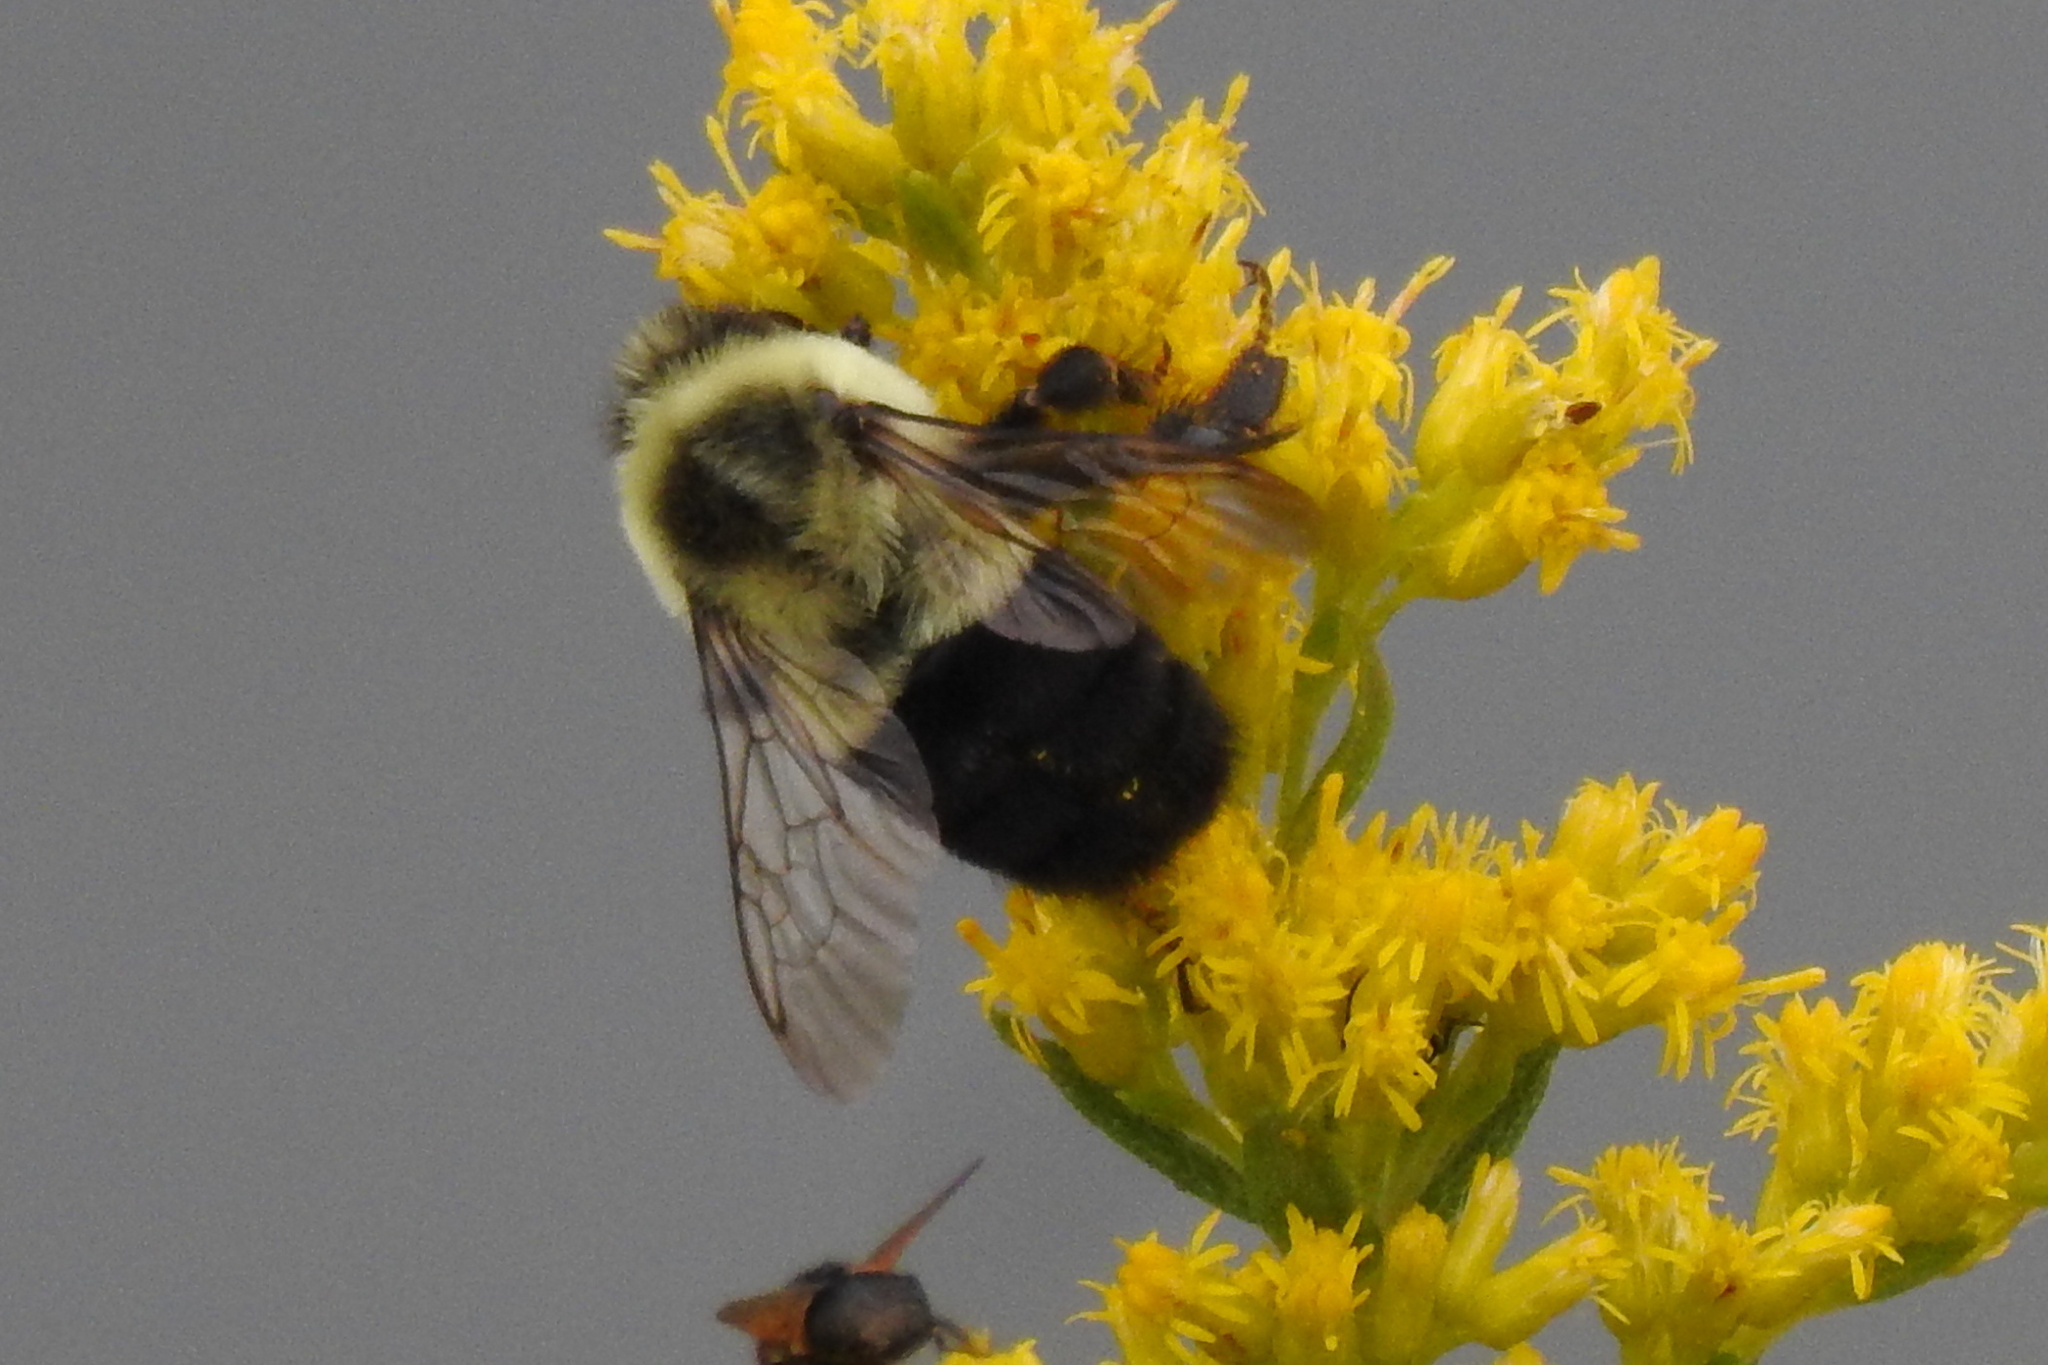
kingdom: Animalia
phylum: Arthropoda
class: Insecta
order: Hymenoptera
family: Apidae
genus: Bombus
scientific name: Bombus impatiens
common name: Common eastern bumble bee
